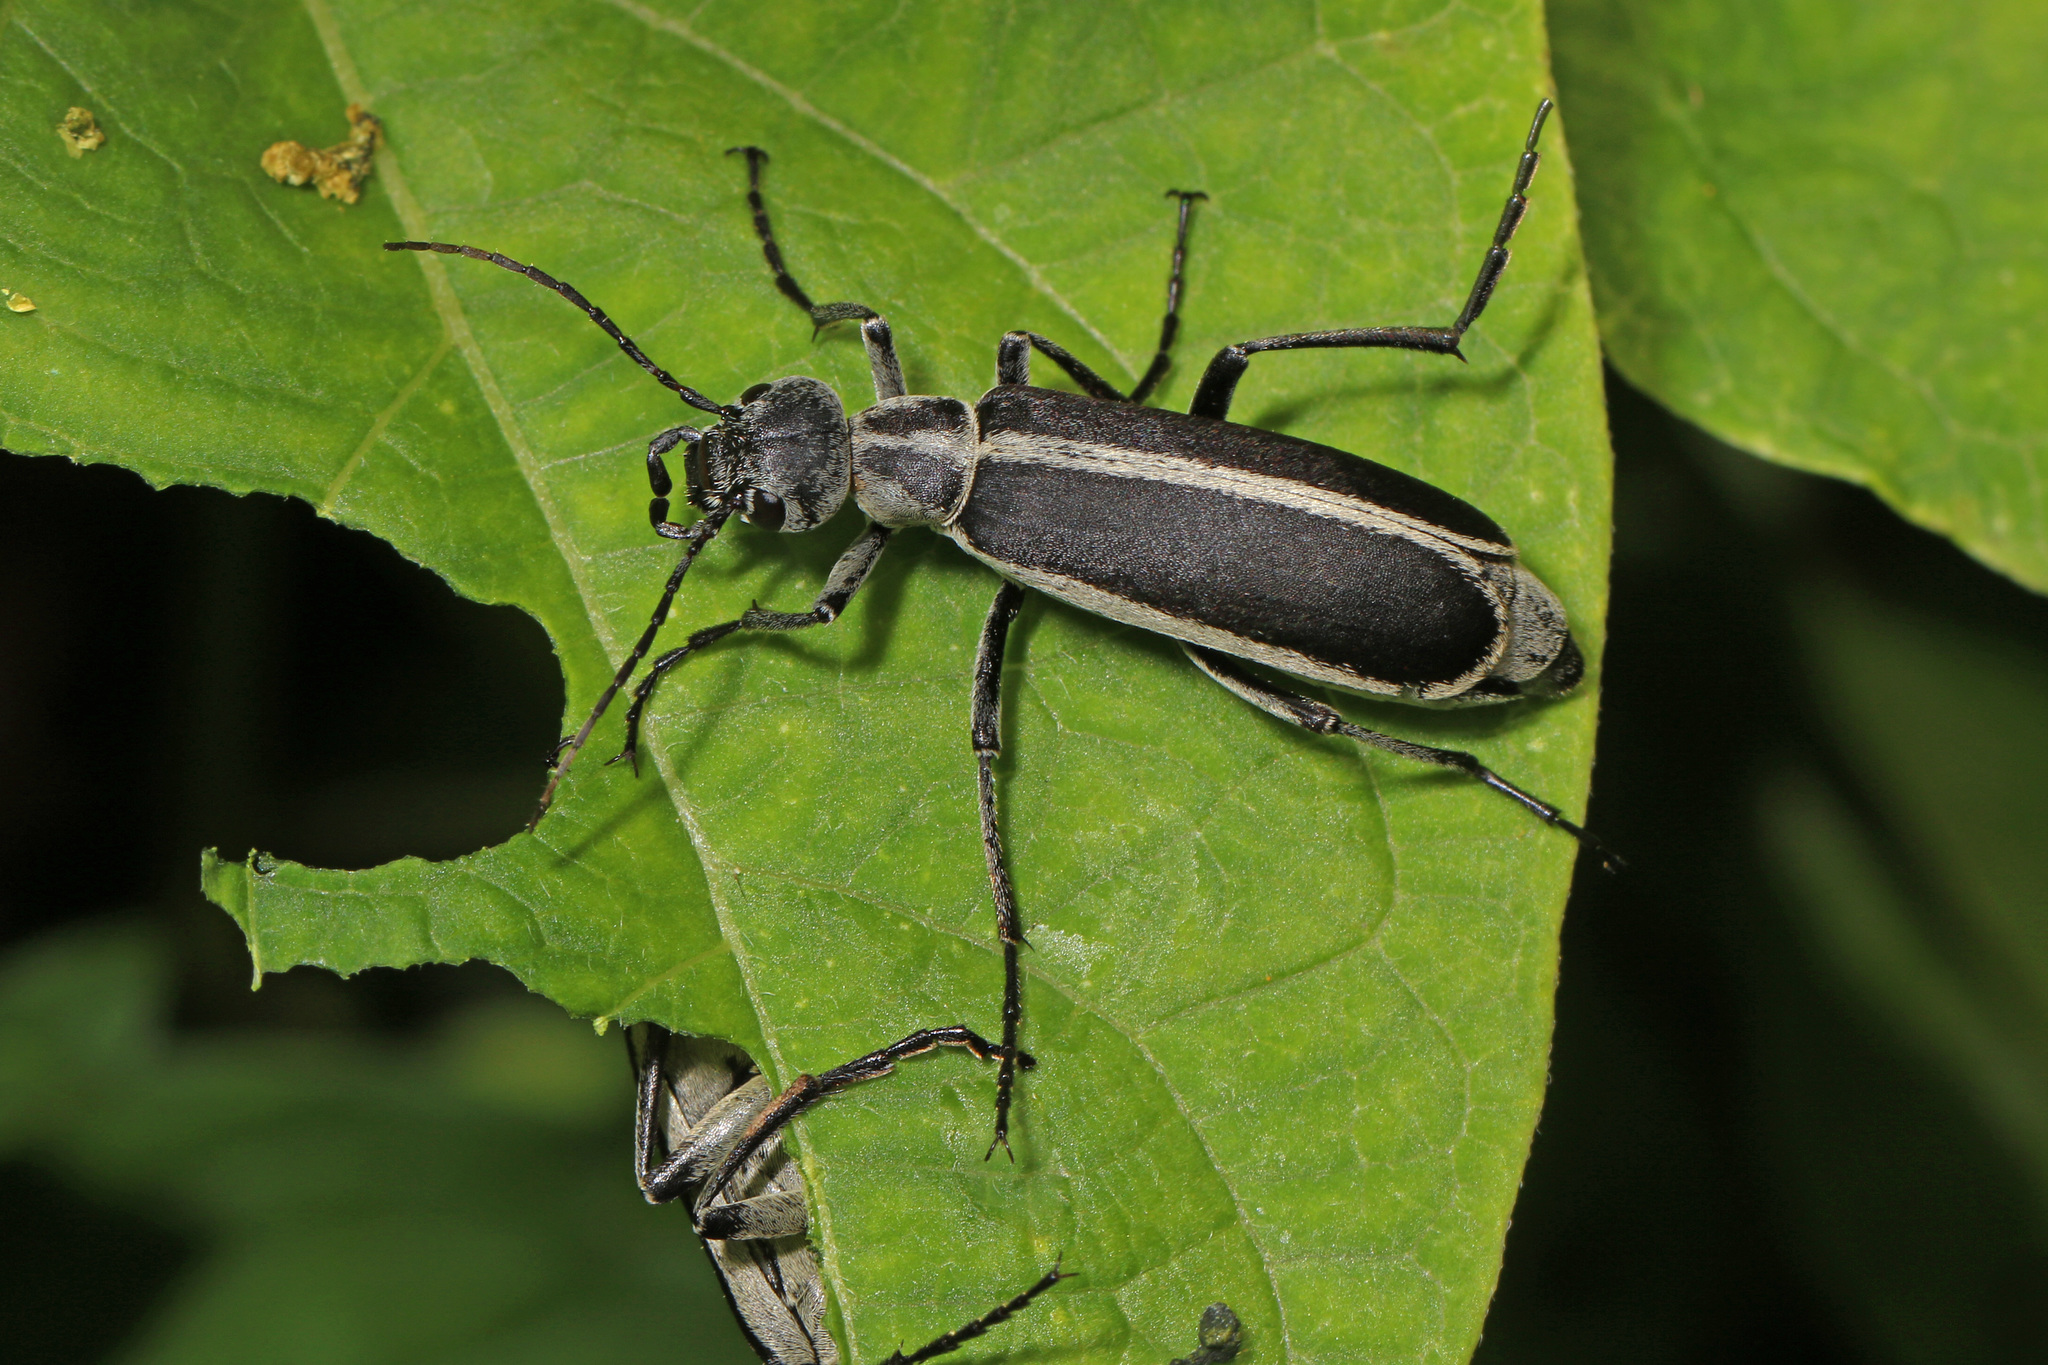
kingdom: Animalia
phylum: Arthropoda
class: Insecta
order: Coleoptera
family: Meloidae
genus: Epicauta
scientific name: Epicauta funebris
